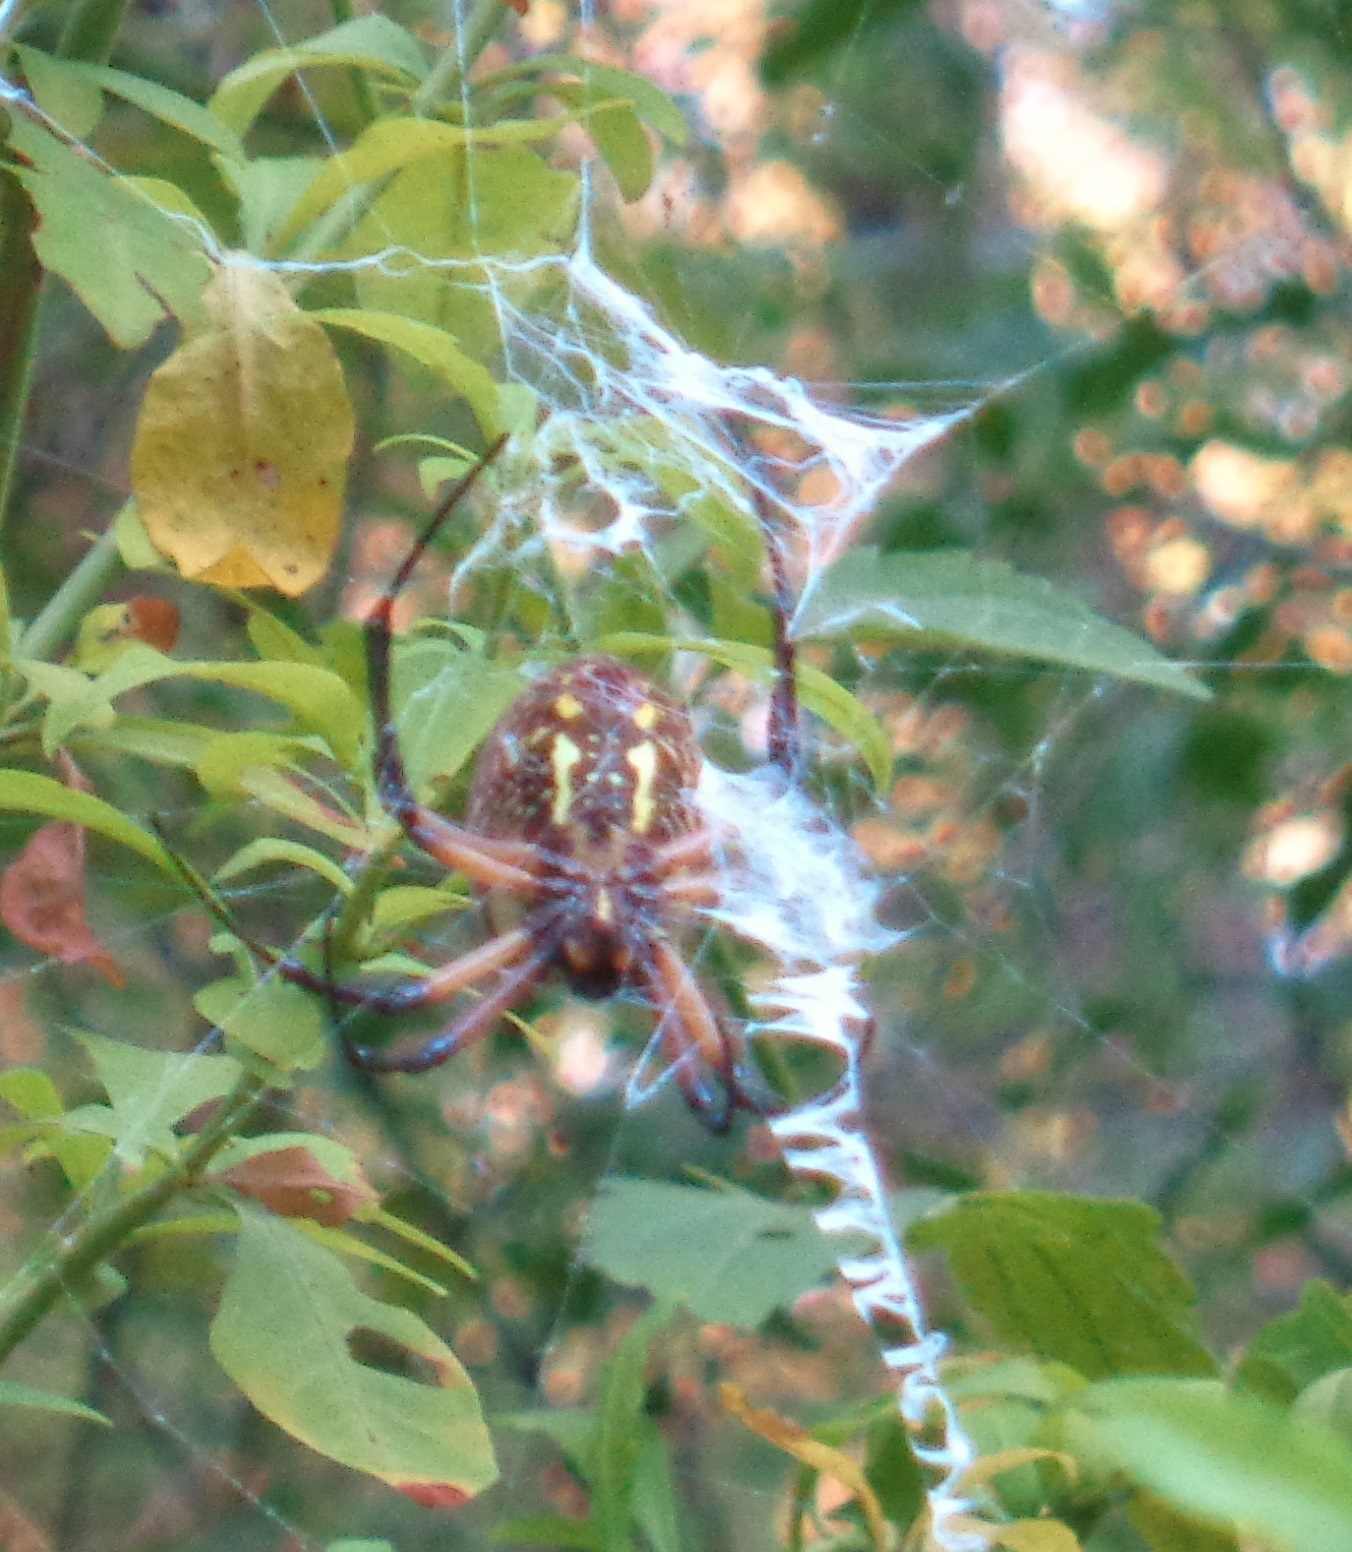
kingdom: Animalia
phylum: Arthropoda
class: Arachnida
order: Araneae
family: Araneidae
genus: Argiope
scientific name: Argiope aurantia
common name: Orb weavers
